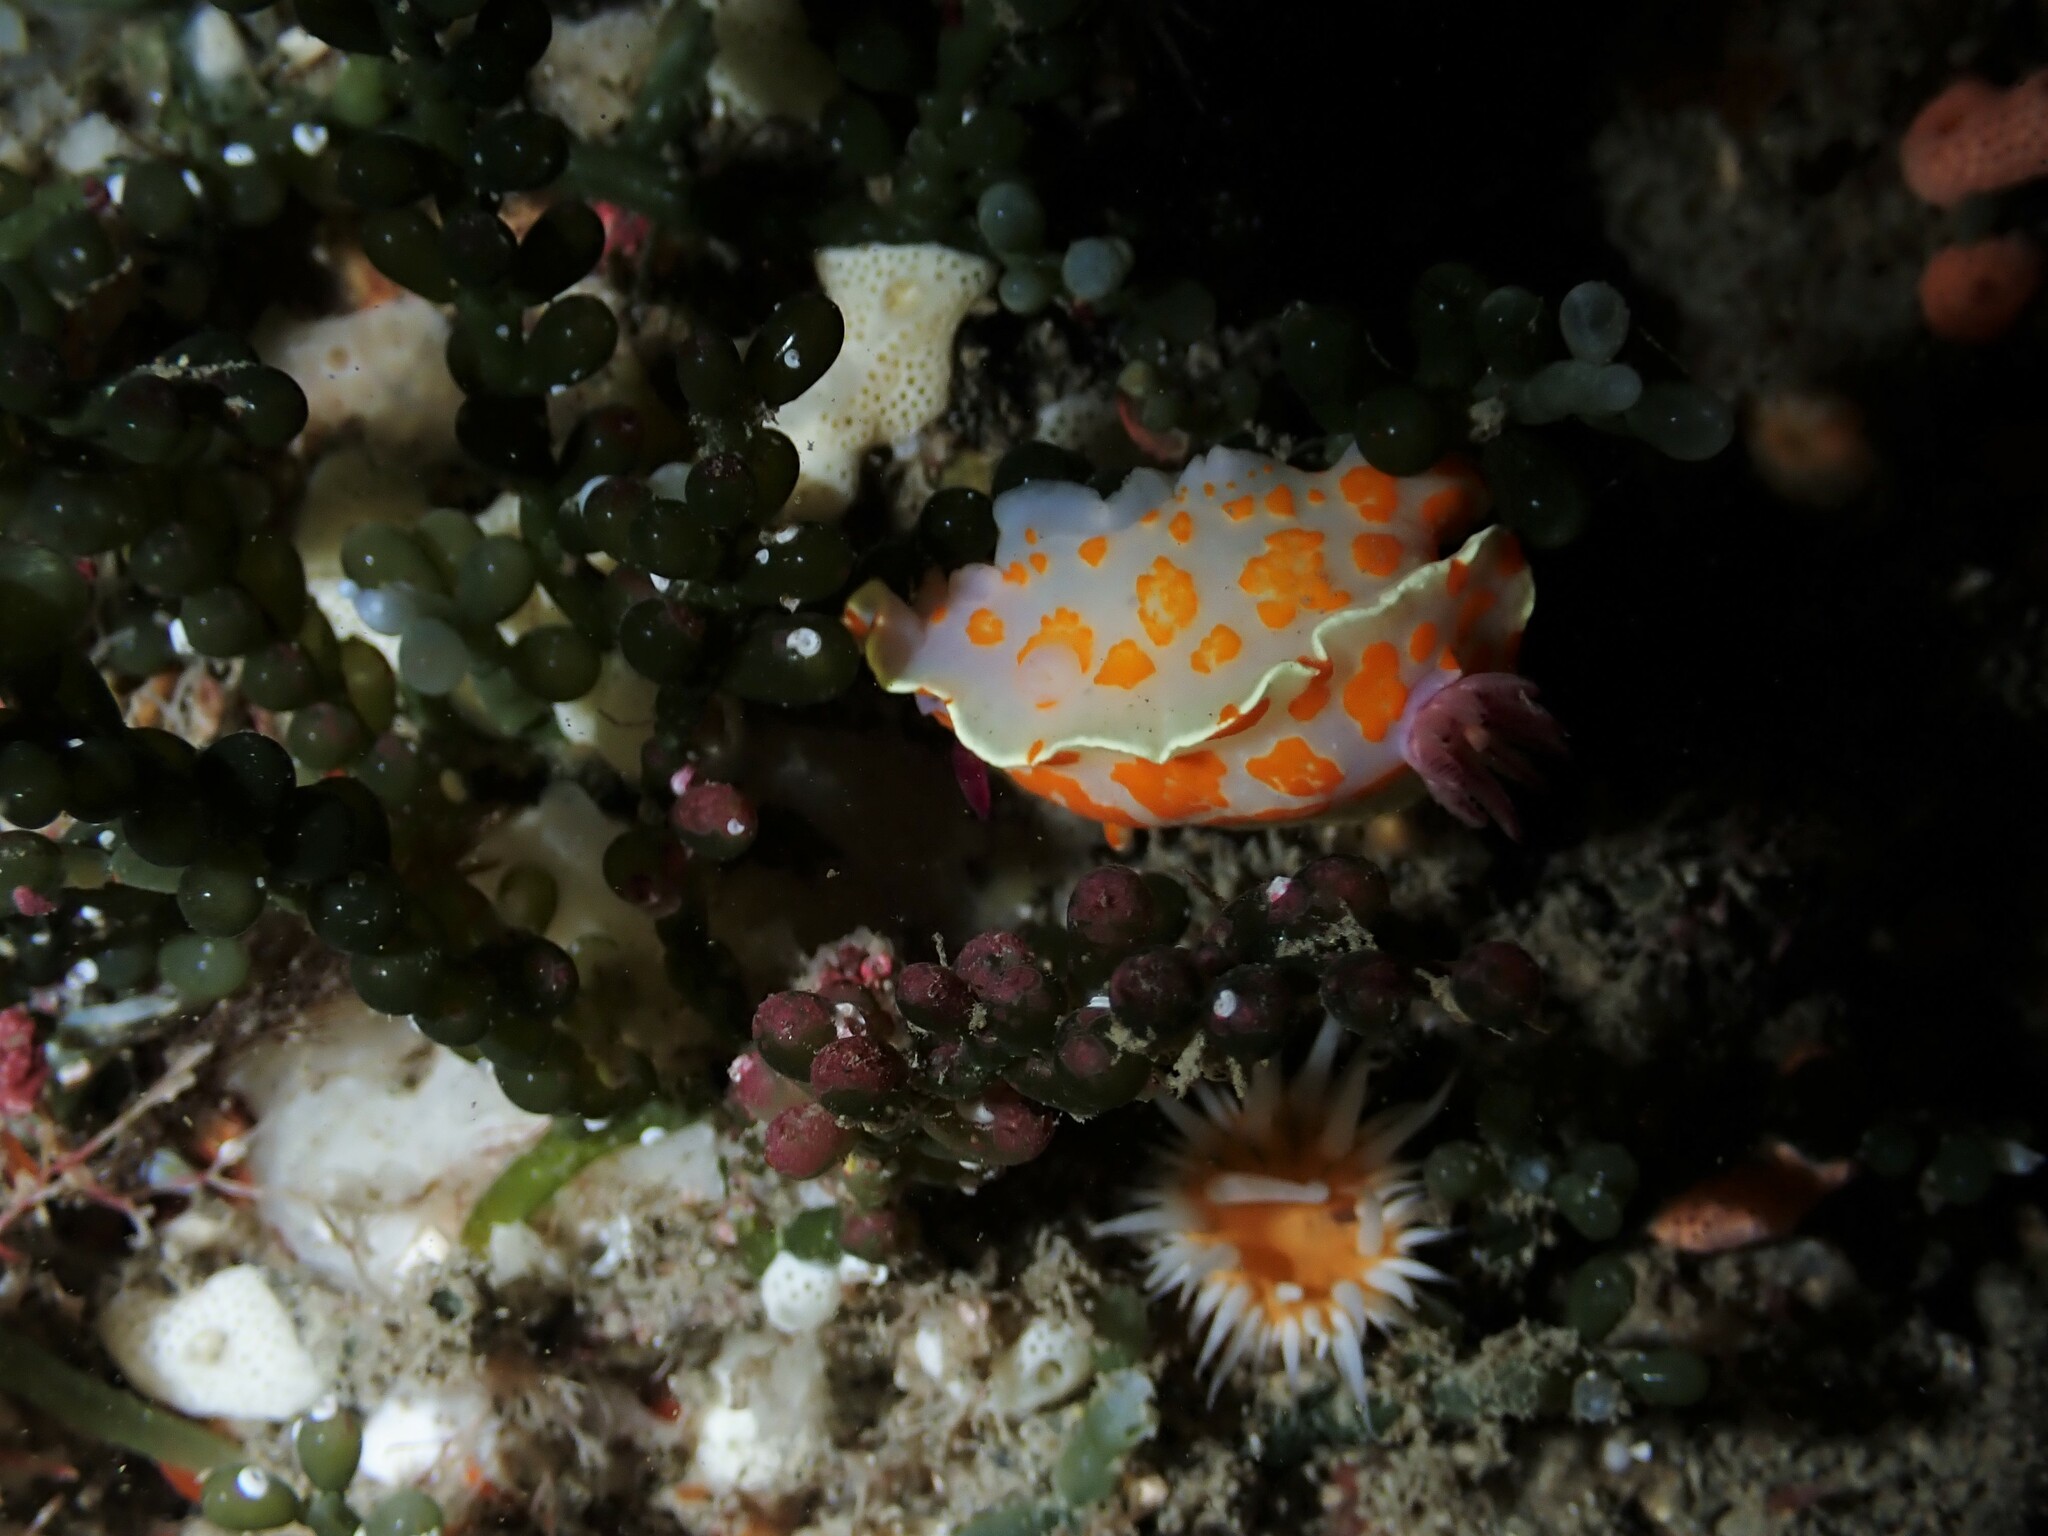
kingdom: Animalia
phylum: Mollusca
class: Gastropoda
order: Nudibranchia
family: Chromodorididae
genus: Ceratosoma
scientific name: Ceratosoma amoenum
